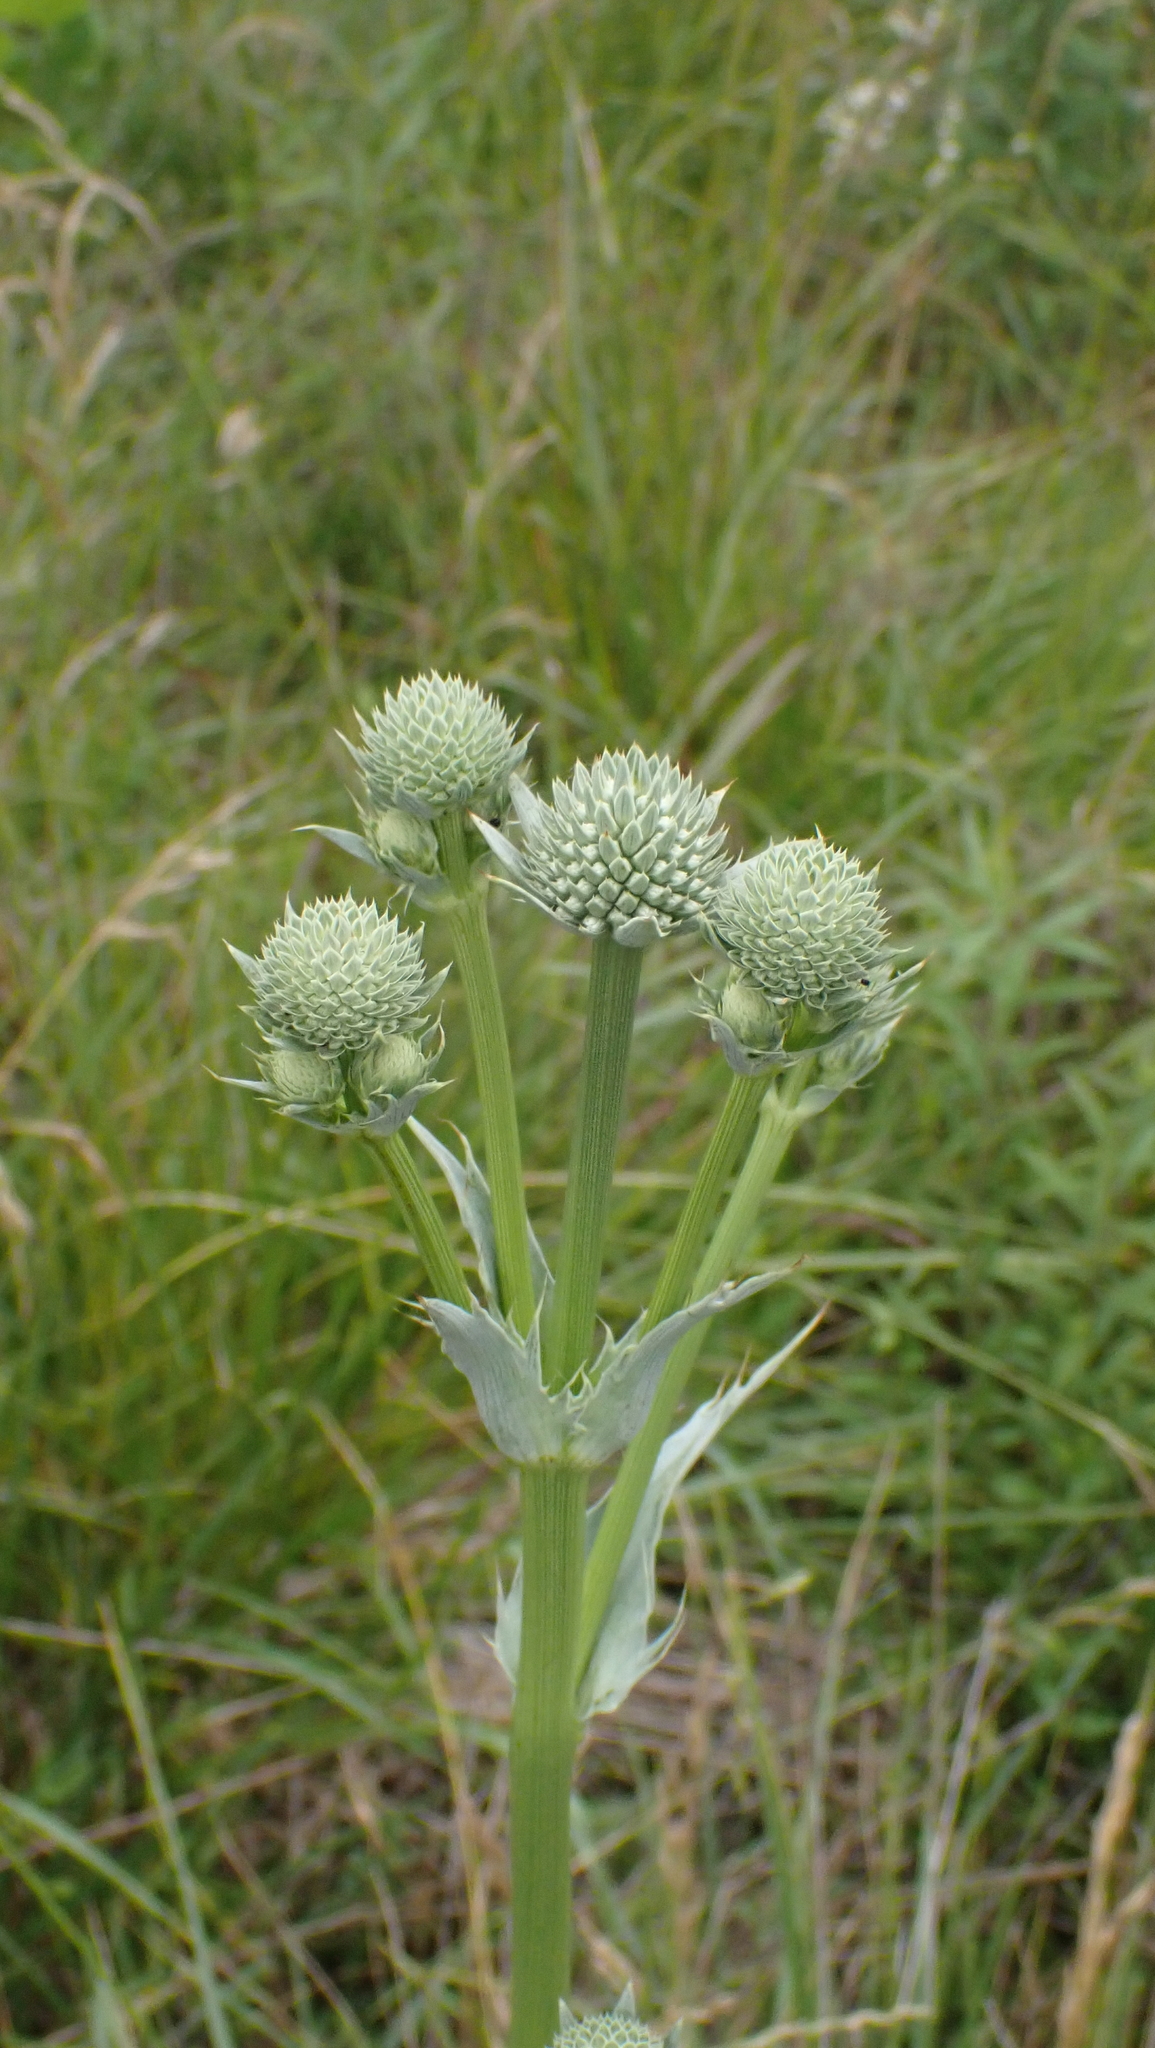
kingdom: Plantae
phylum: Tracheophyta
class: Magnoliopsida
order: Apiales
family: Apiaceae
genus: Eryngium
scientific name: Eryngium yuccifolium
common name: Button eryngo
